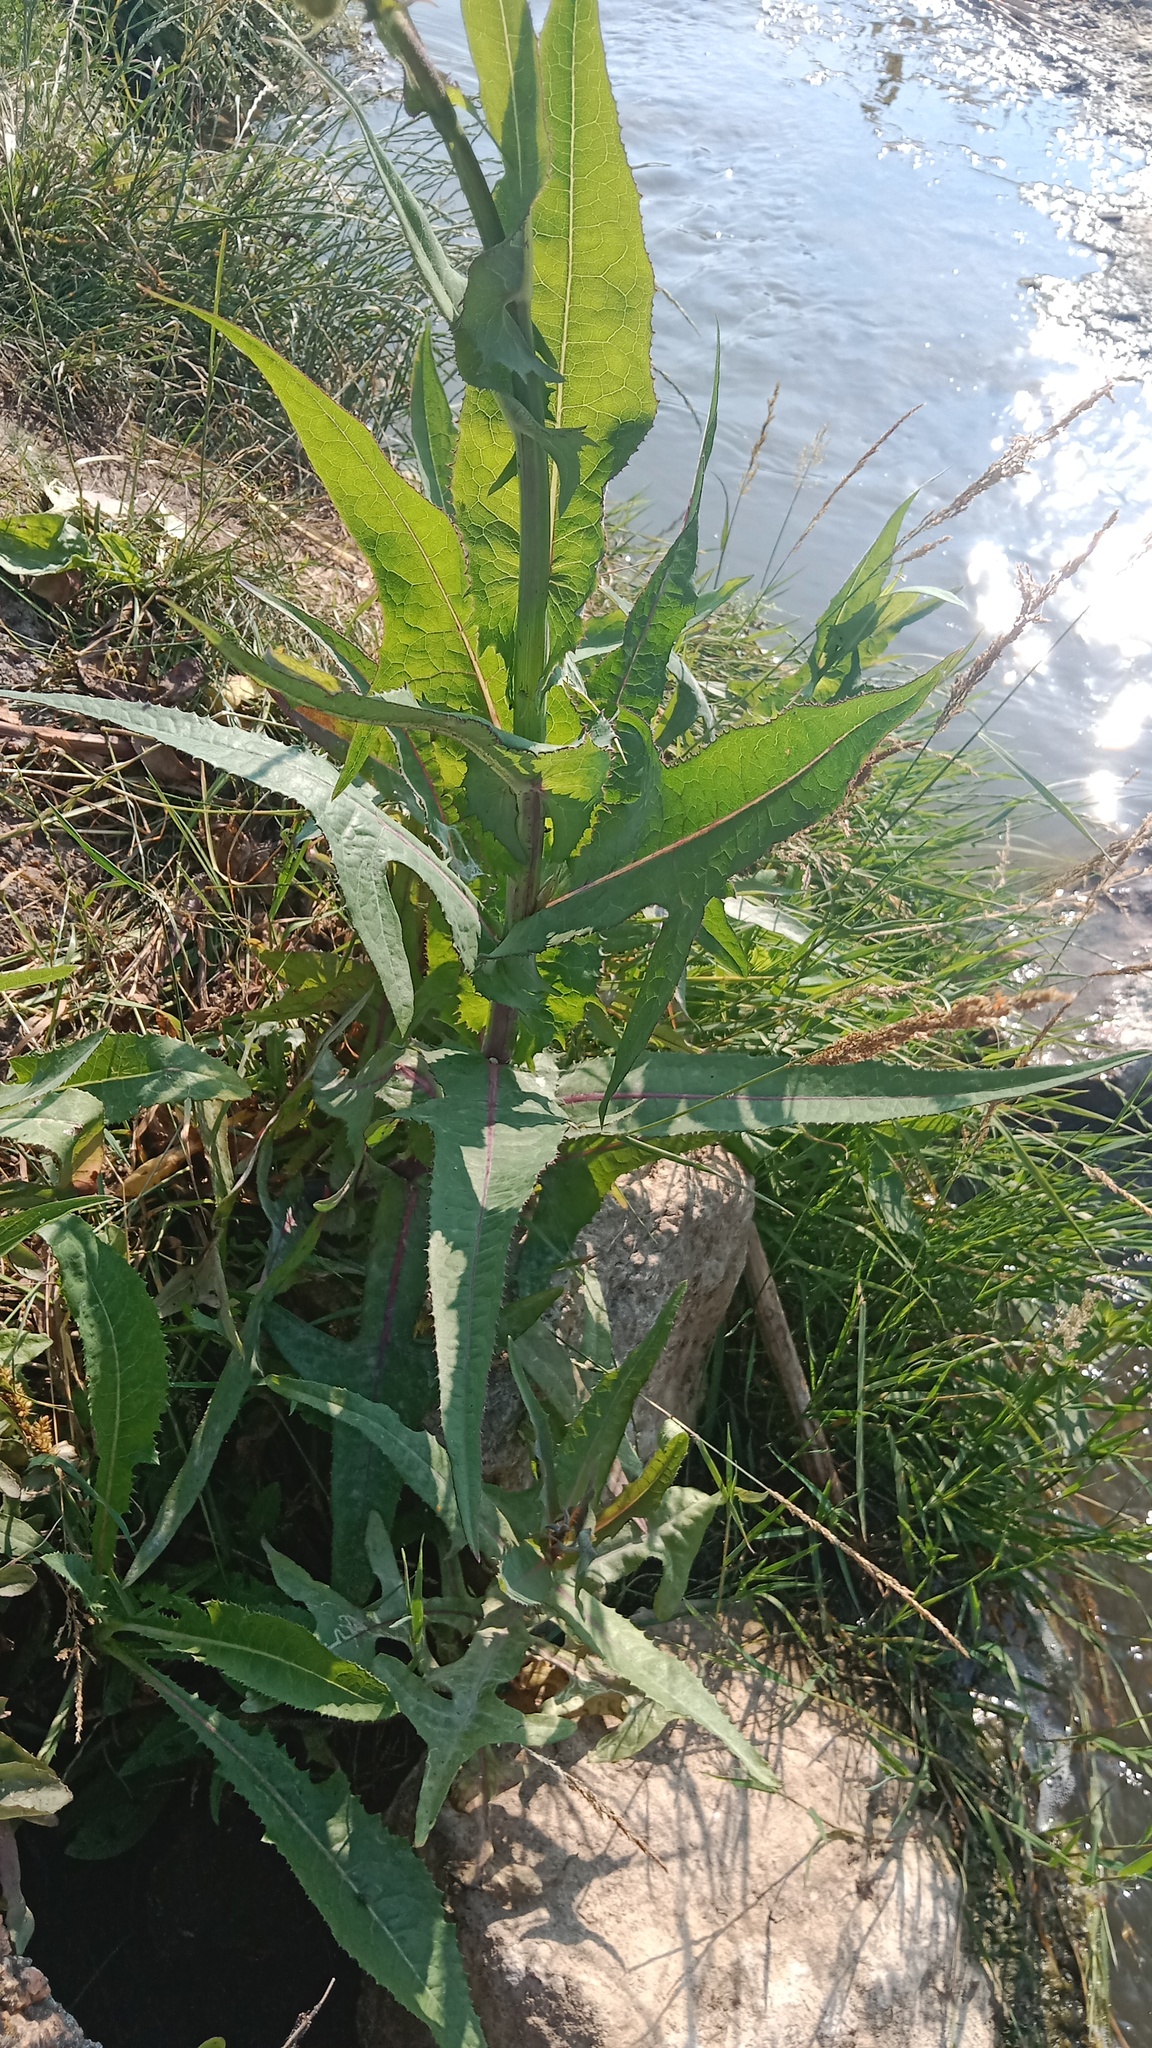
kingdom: Plantae
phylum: Tracheophyta
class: Magnoliopsida
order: Asterales
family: Asteraceae
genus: Sonchus
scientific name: Sonchus palustris
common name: Marsh sow-thistle
